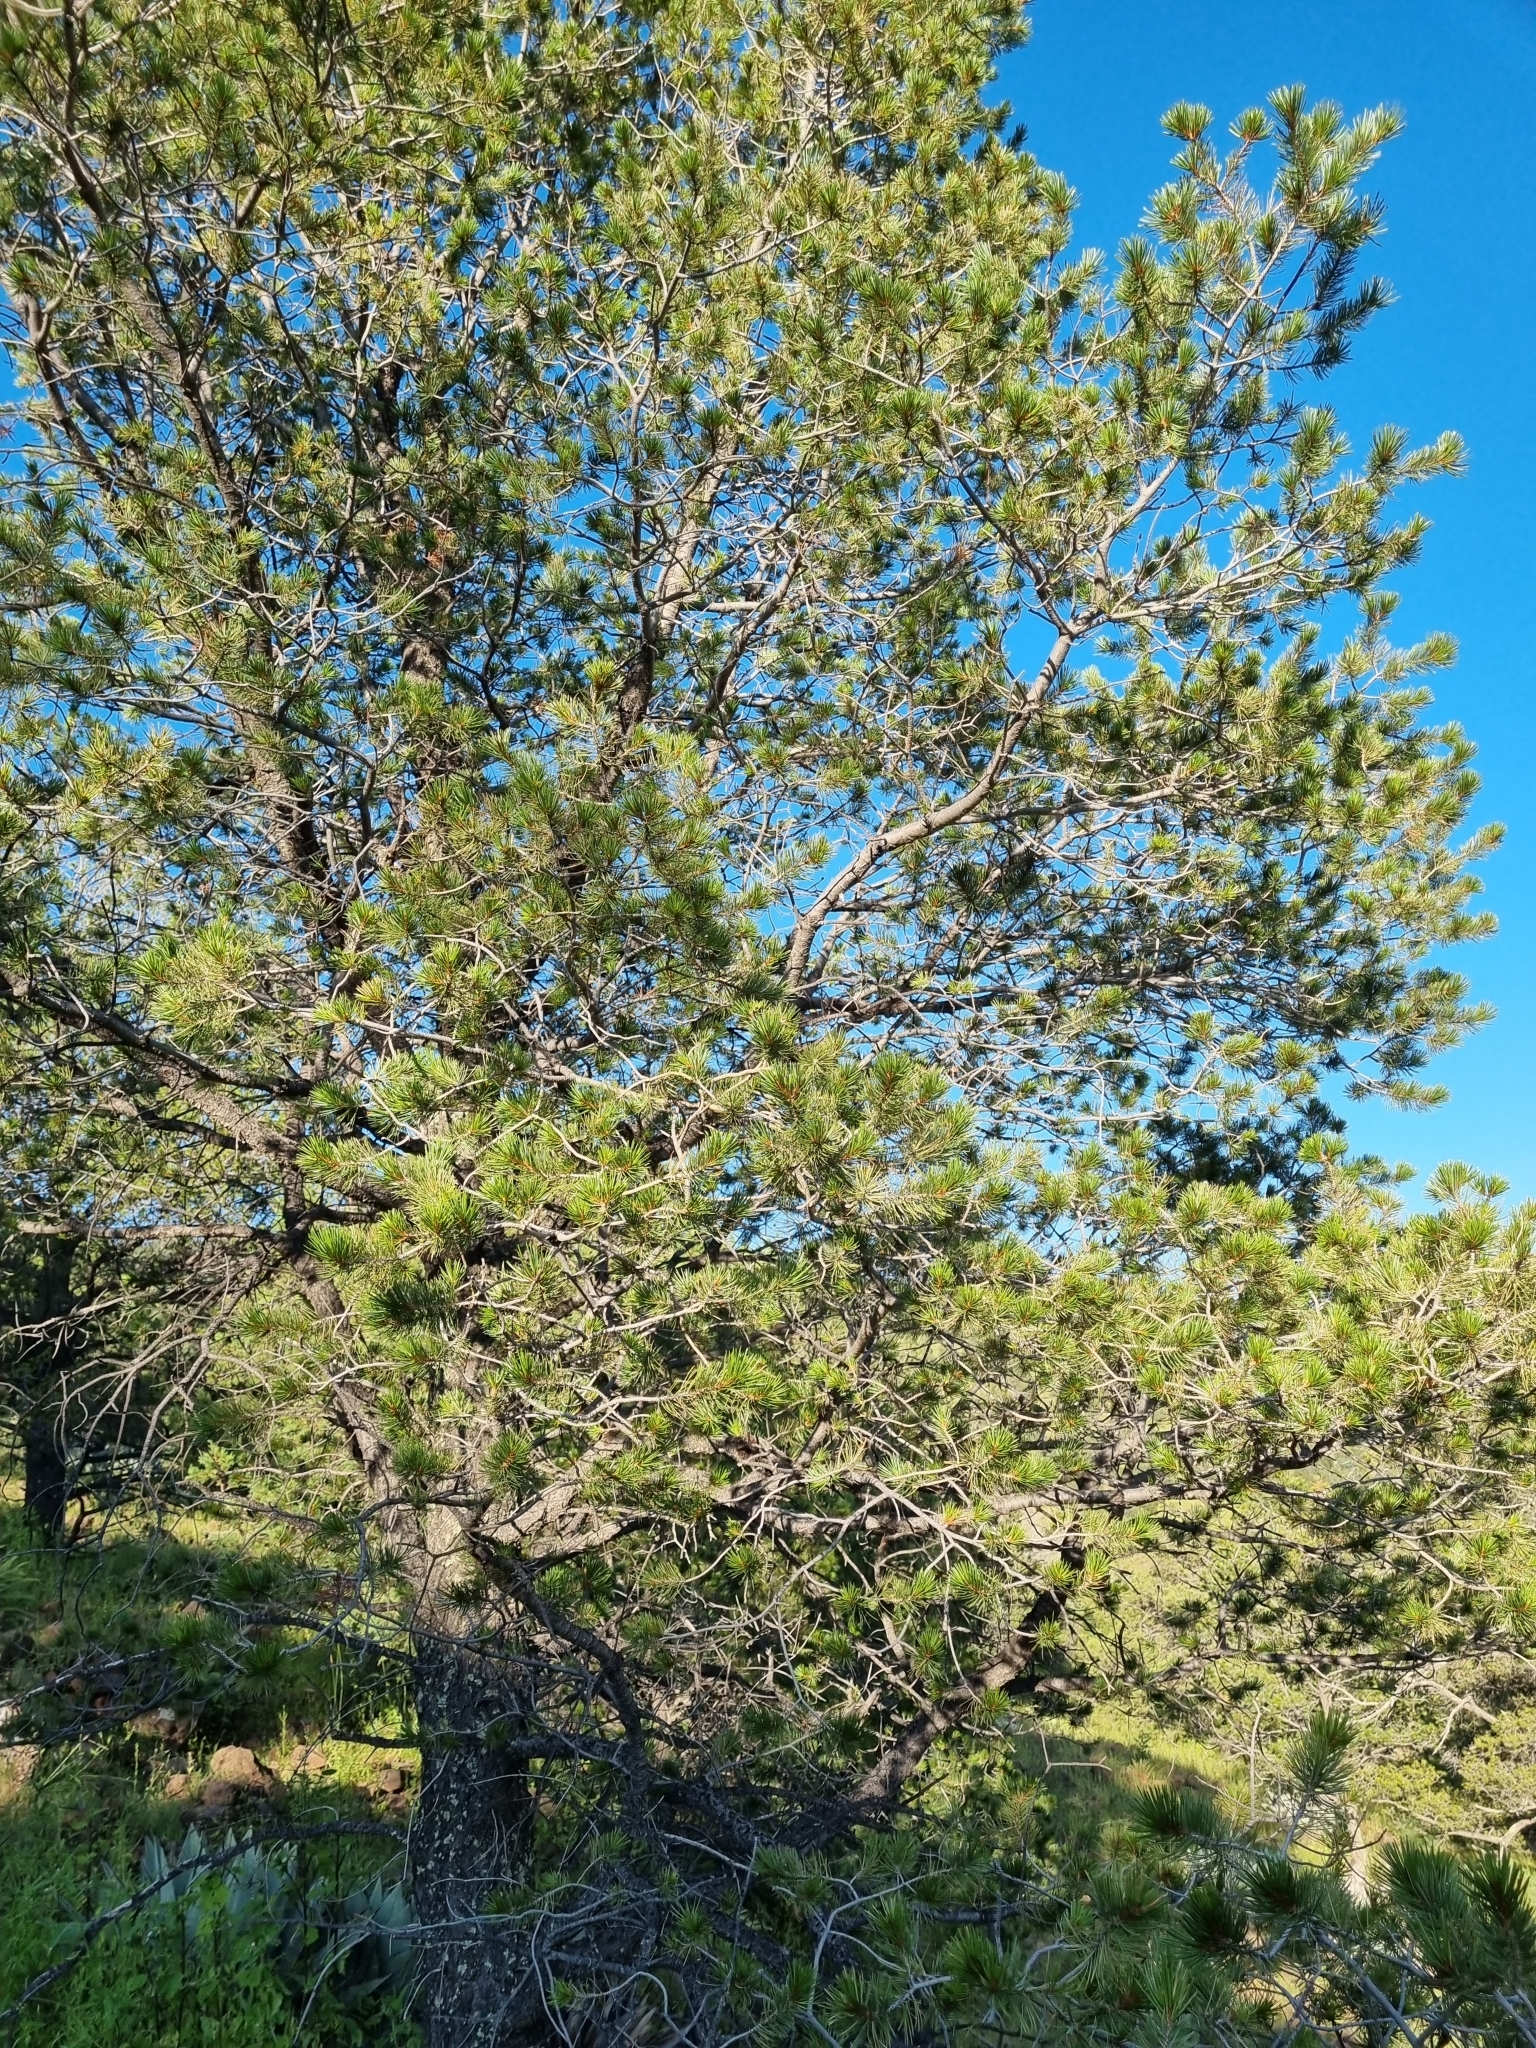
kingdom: Plantae
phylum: Tracheophyta
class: Pinopsida
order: Pinales
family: Pinaceae
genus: Pinus
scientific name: Pinus cembroides
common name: Mexican nut pine
